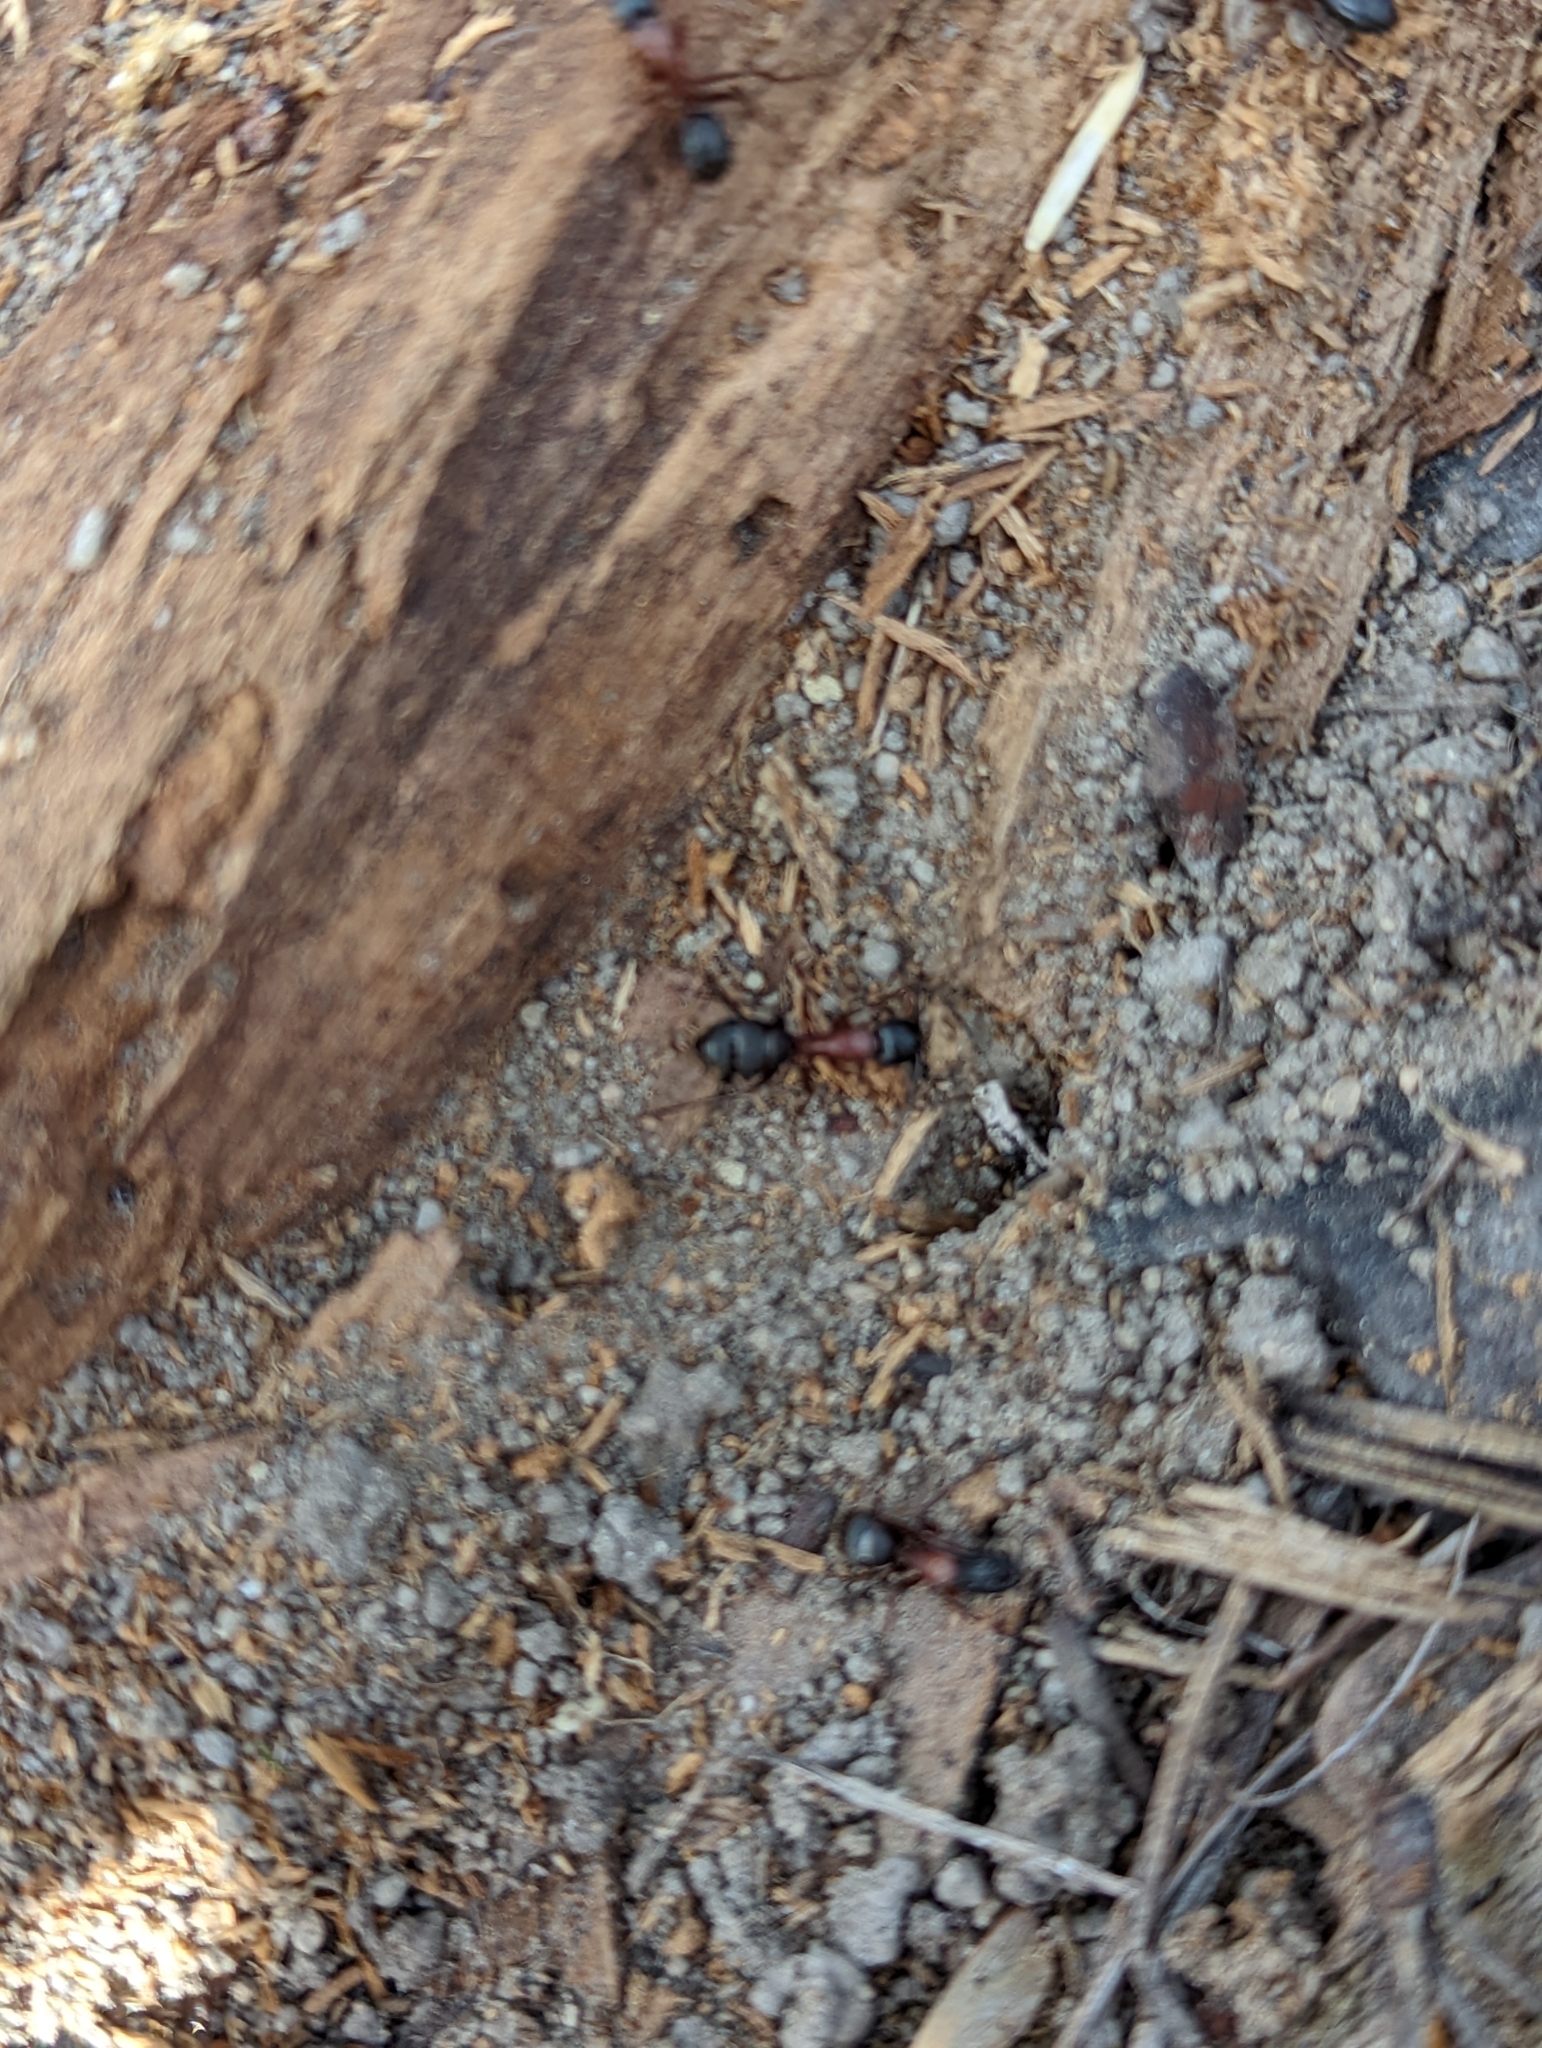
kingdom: Animalia
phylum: Arthropoda
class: Insecta
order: Hymenoptera
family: Formicidae
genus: Camponotus
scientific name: Camponotus vicinus
